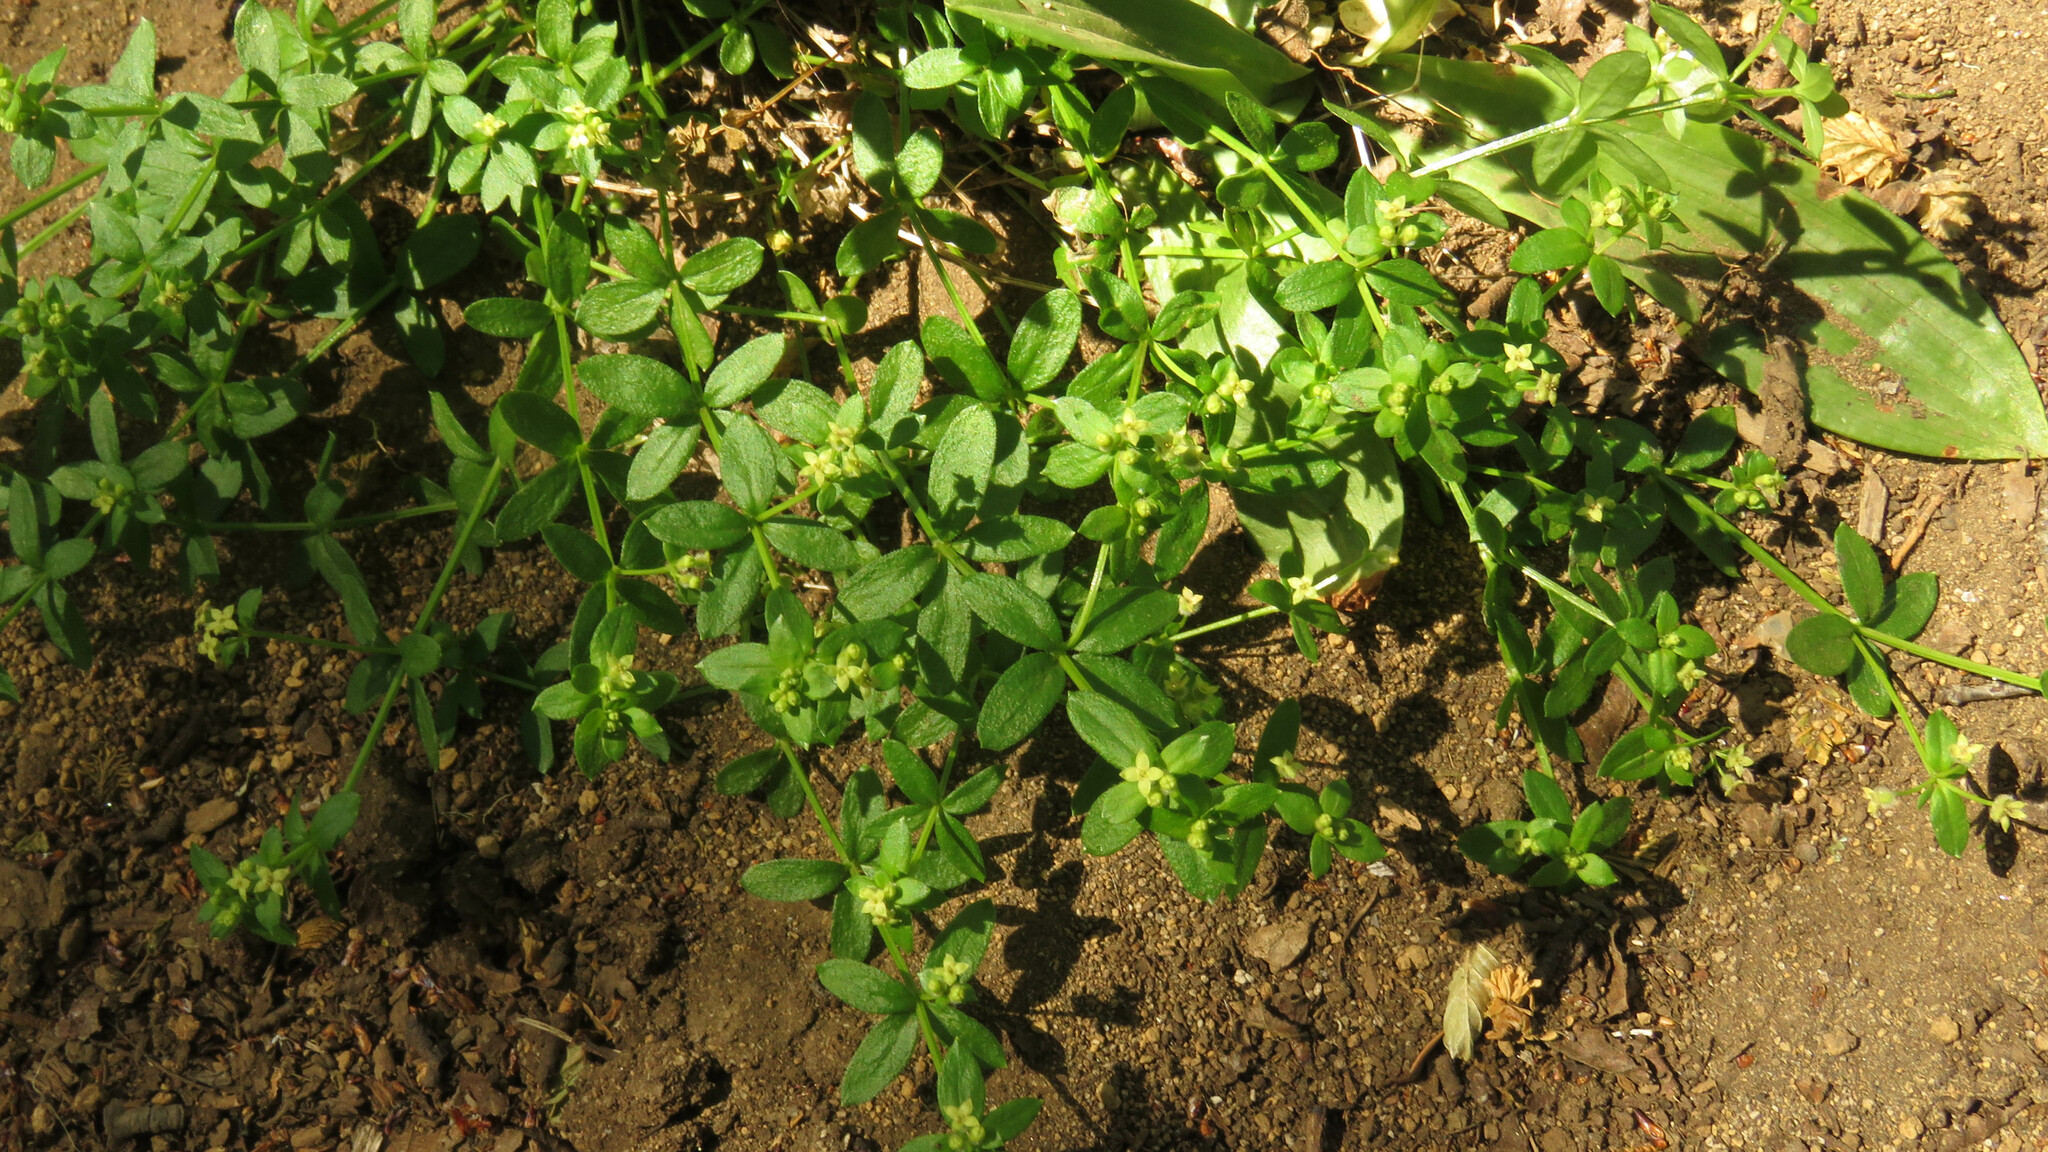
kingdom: Plantae
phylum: Tracheophyta
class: Magnoliopsida
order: Gentianales
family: Rubiaceae
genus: Galium
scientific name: Galium hypocarpium
